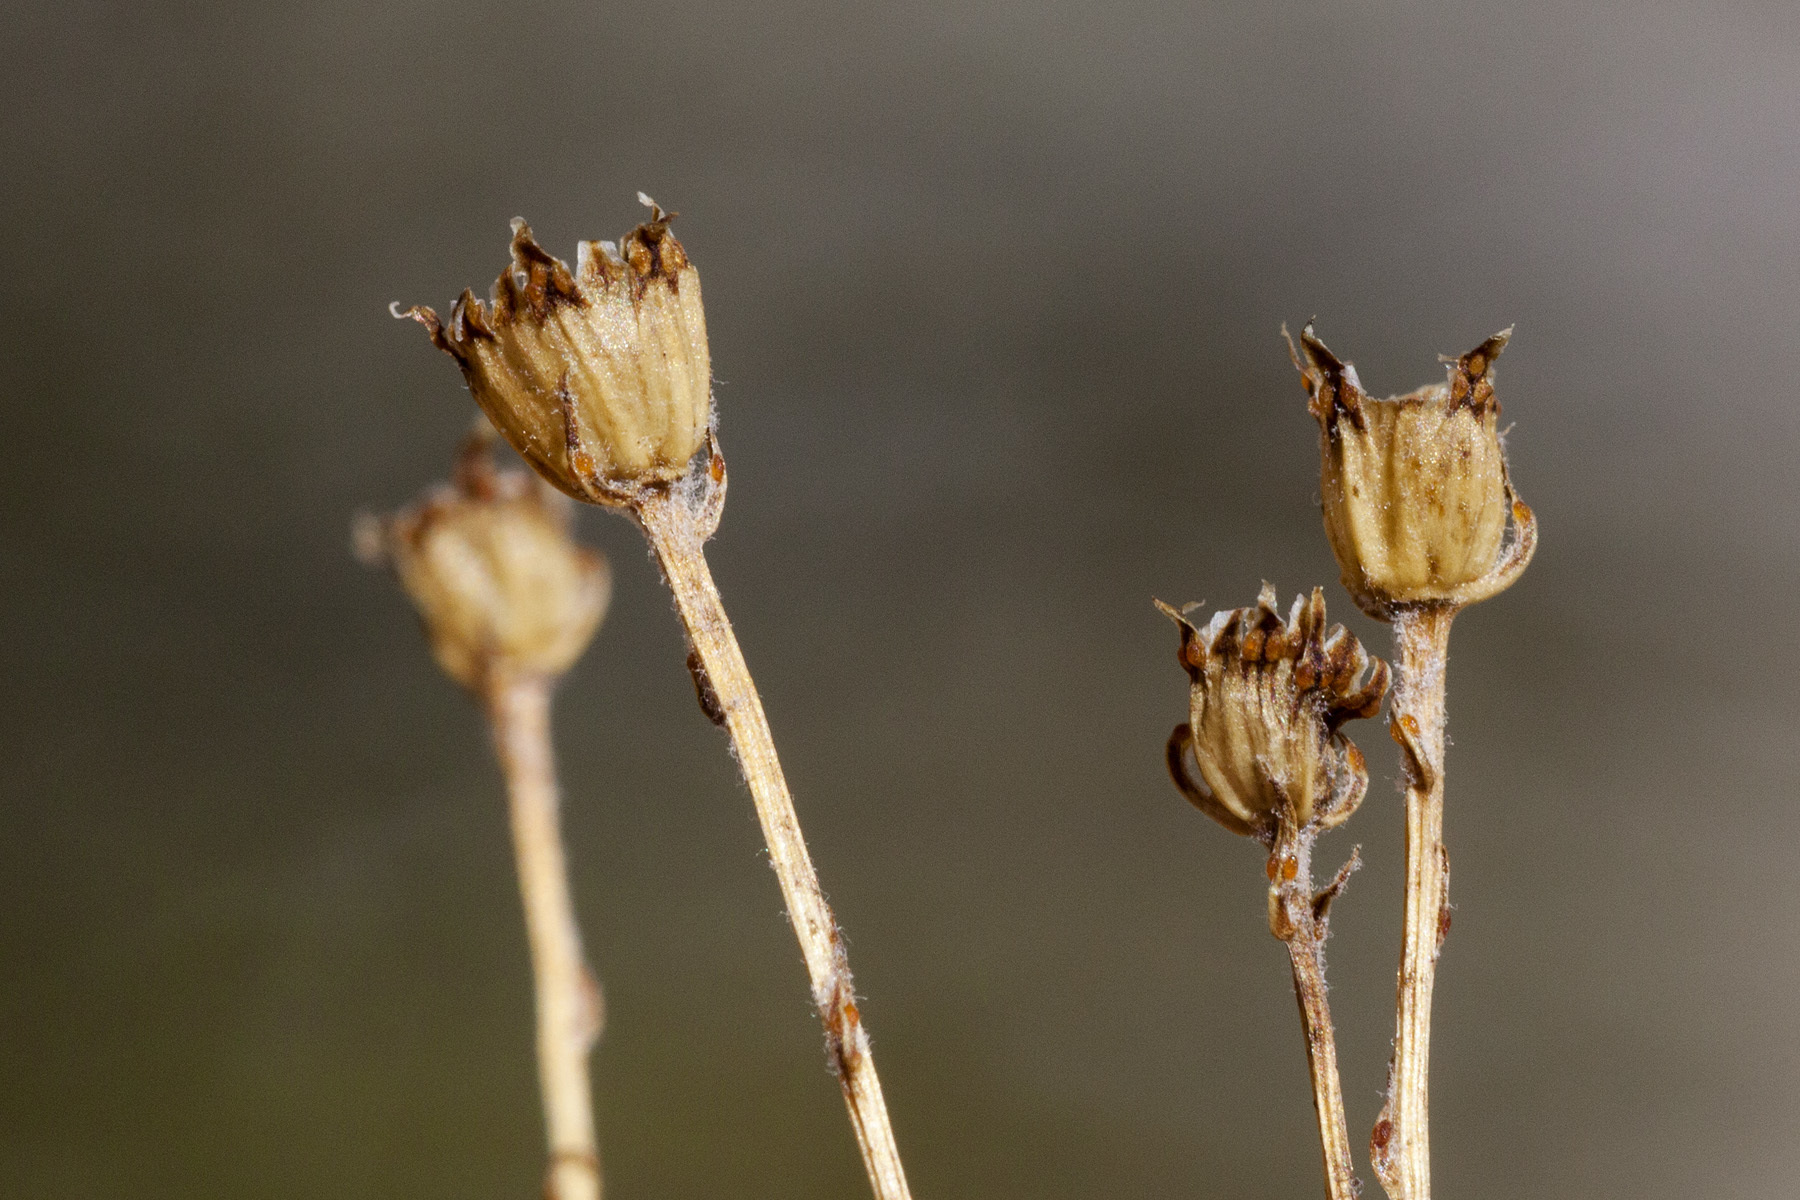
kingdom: Plantae
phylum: Tracheophyta
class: Magnoliopsida
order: Asterales
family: Asteraceae
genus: Thymophylla
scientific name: Thymophylla setifolia
